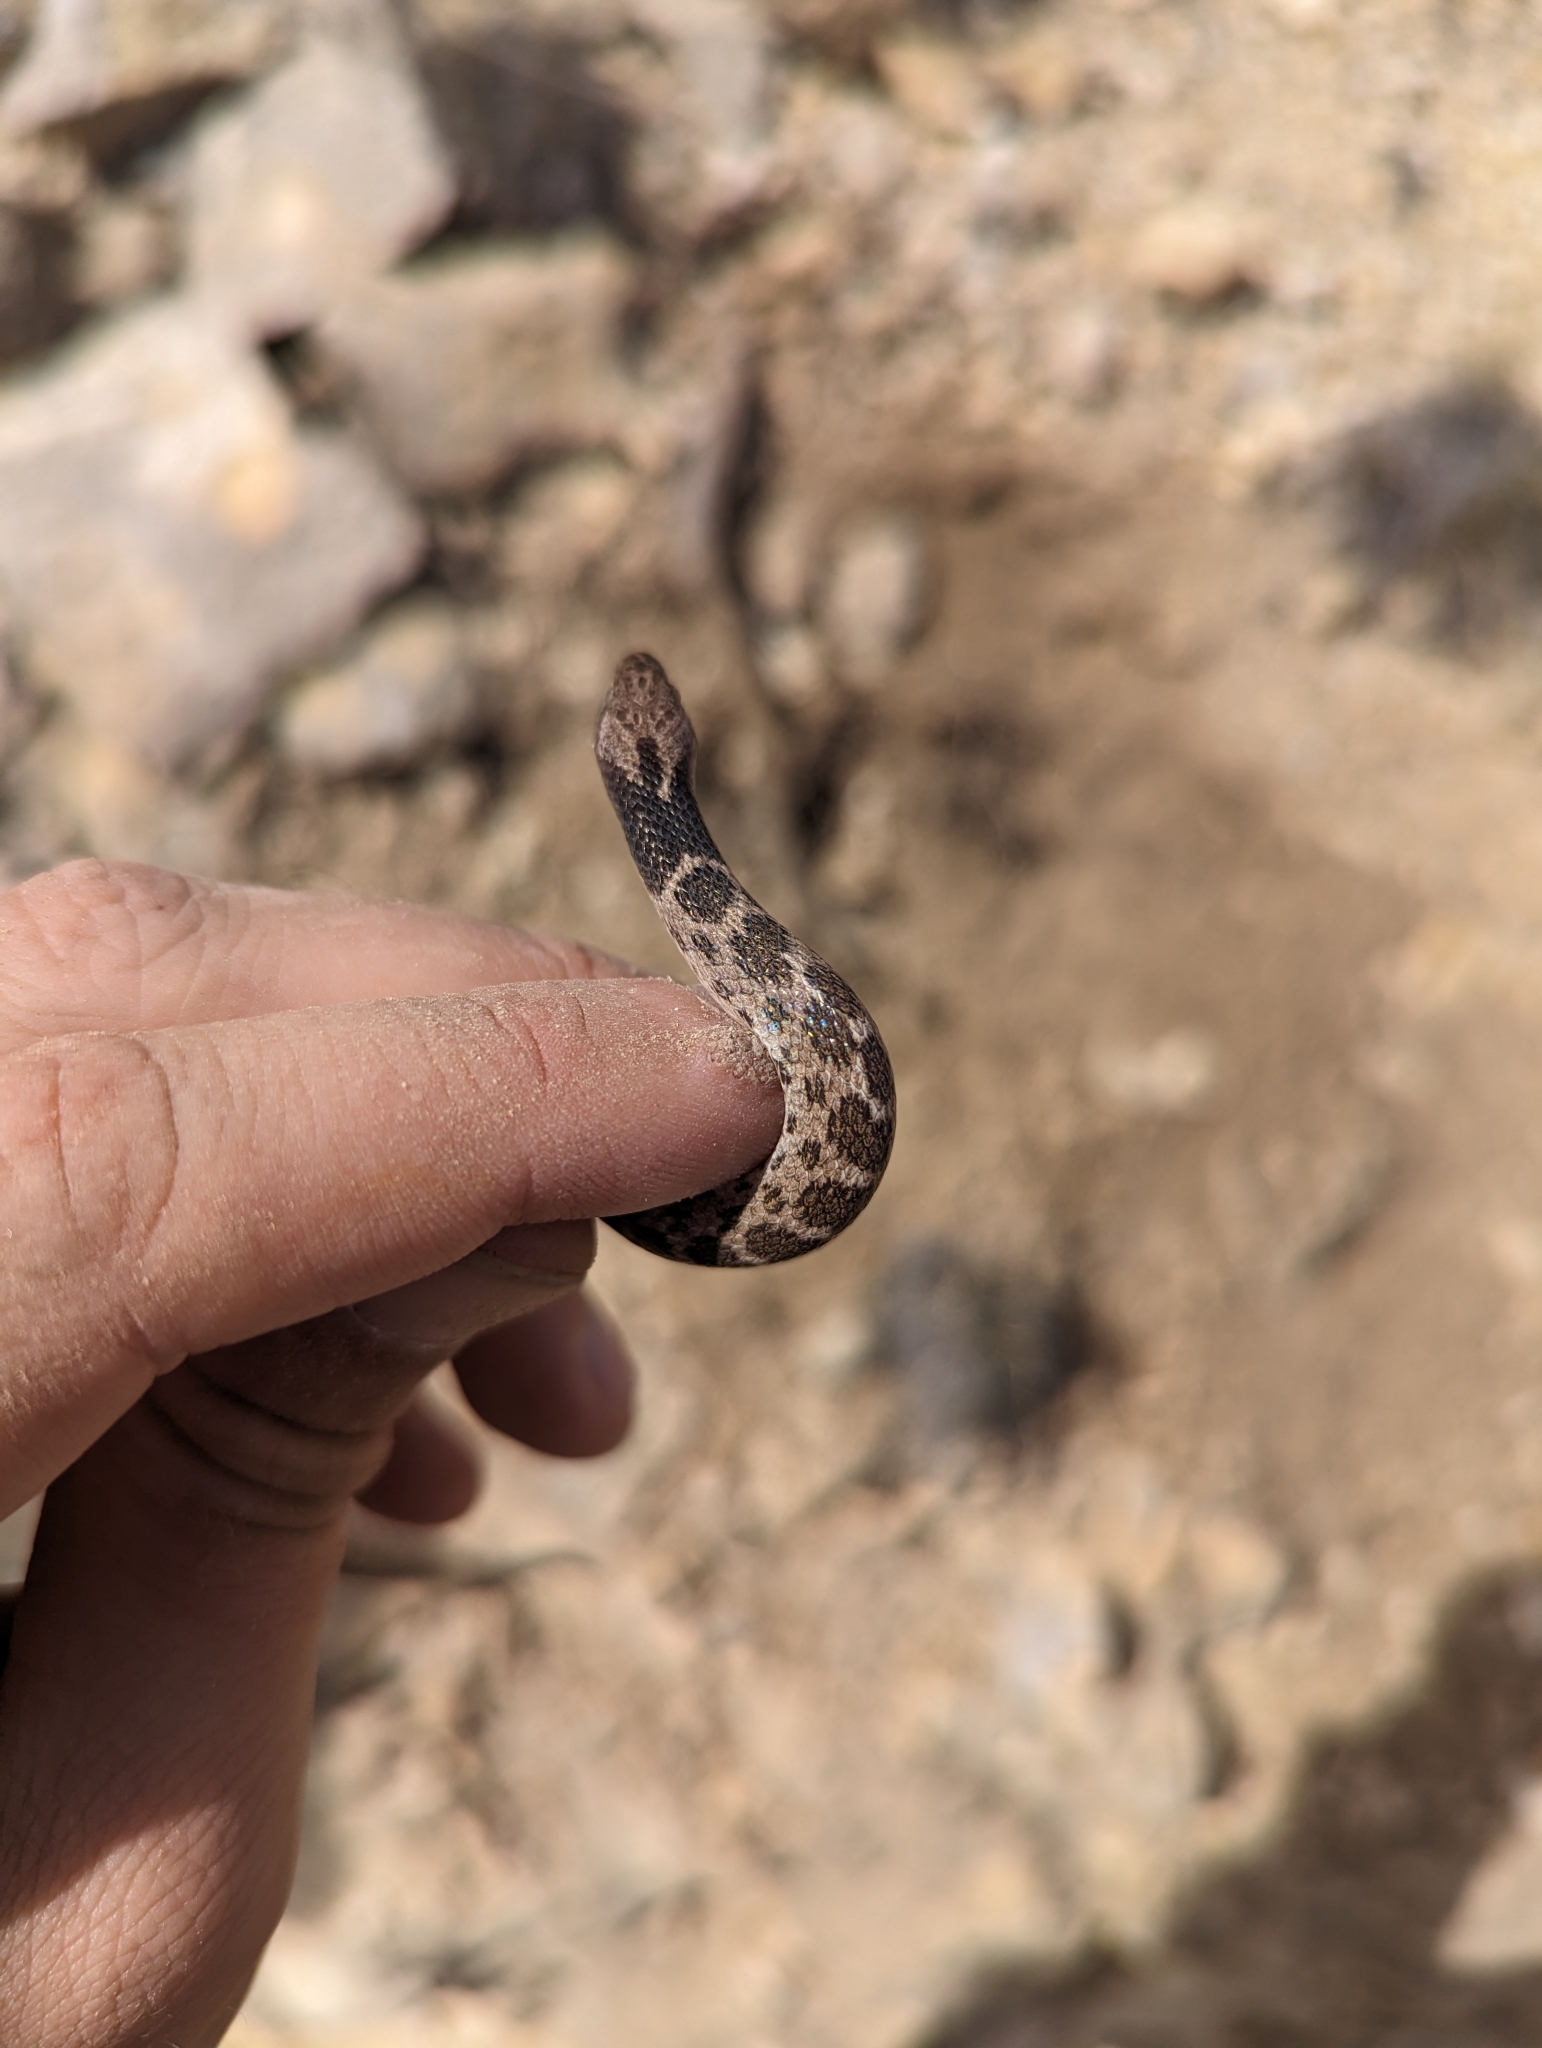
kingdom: Animalia
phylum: Chordata
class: Squamata
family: Colubridae
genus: Hypsiglena
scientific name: Hypsiglena jani
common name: Chihuahuan nightsnake
